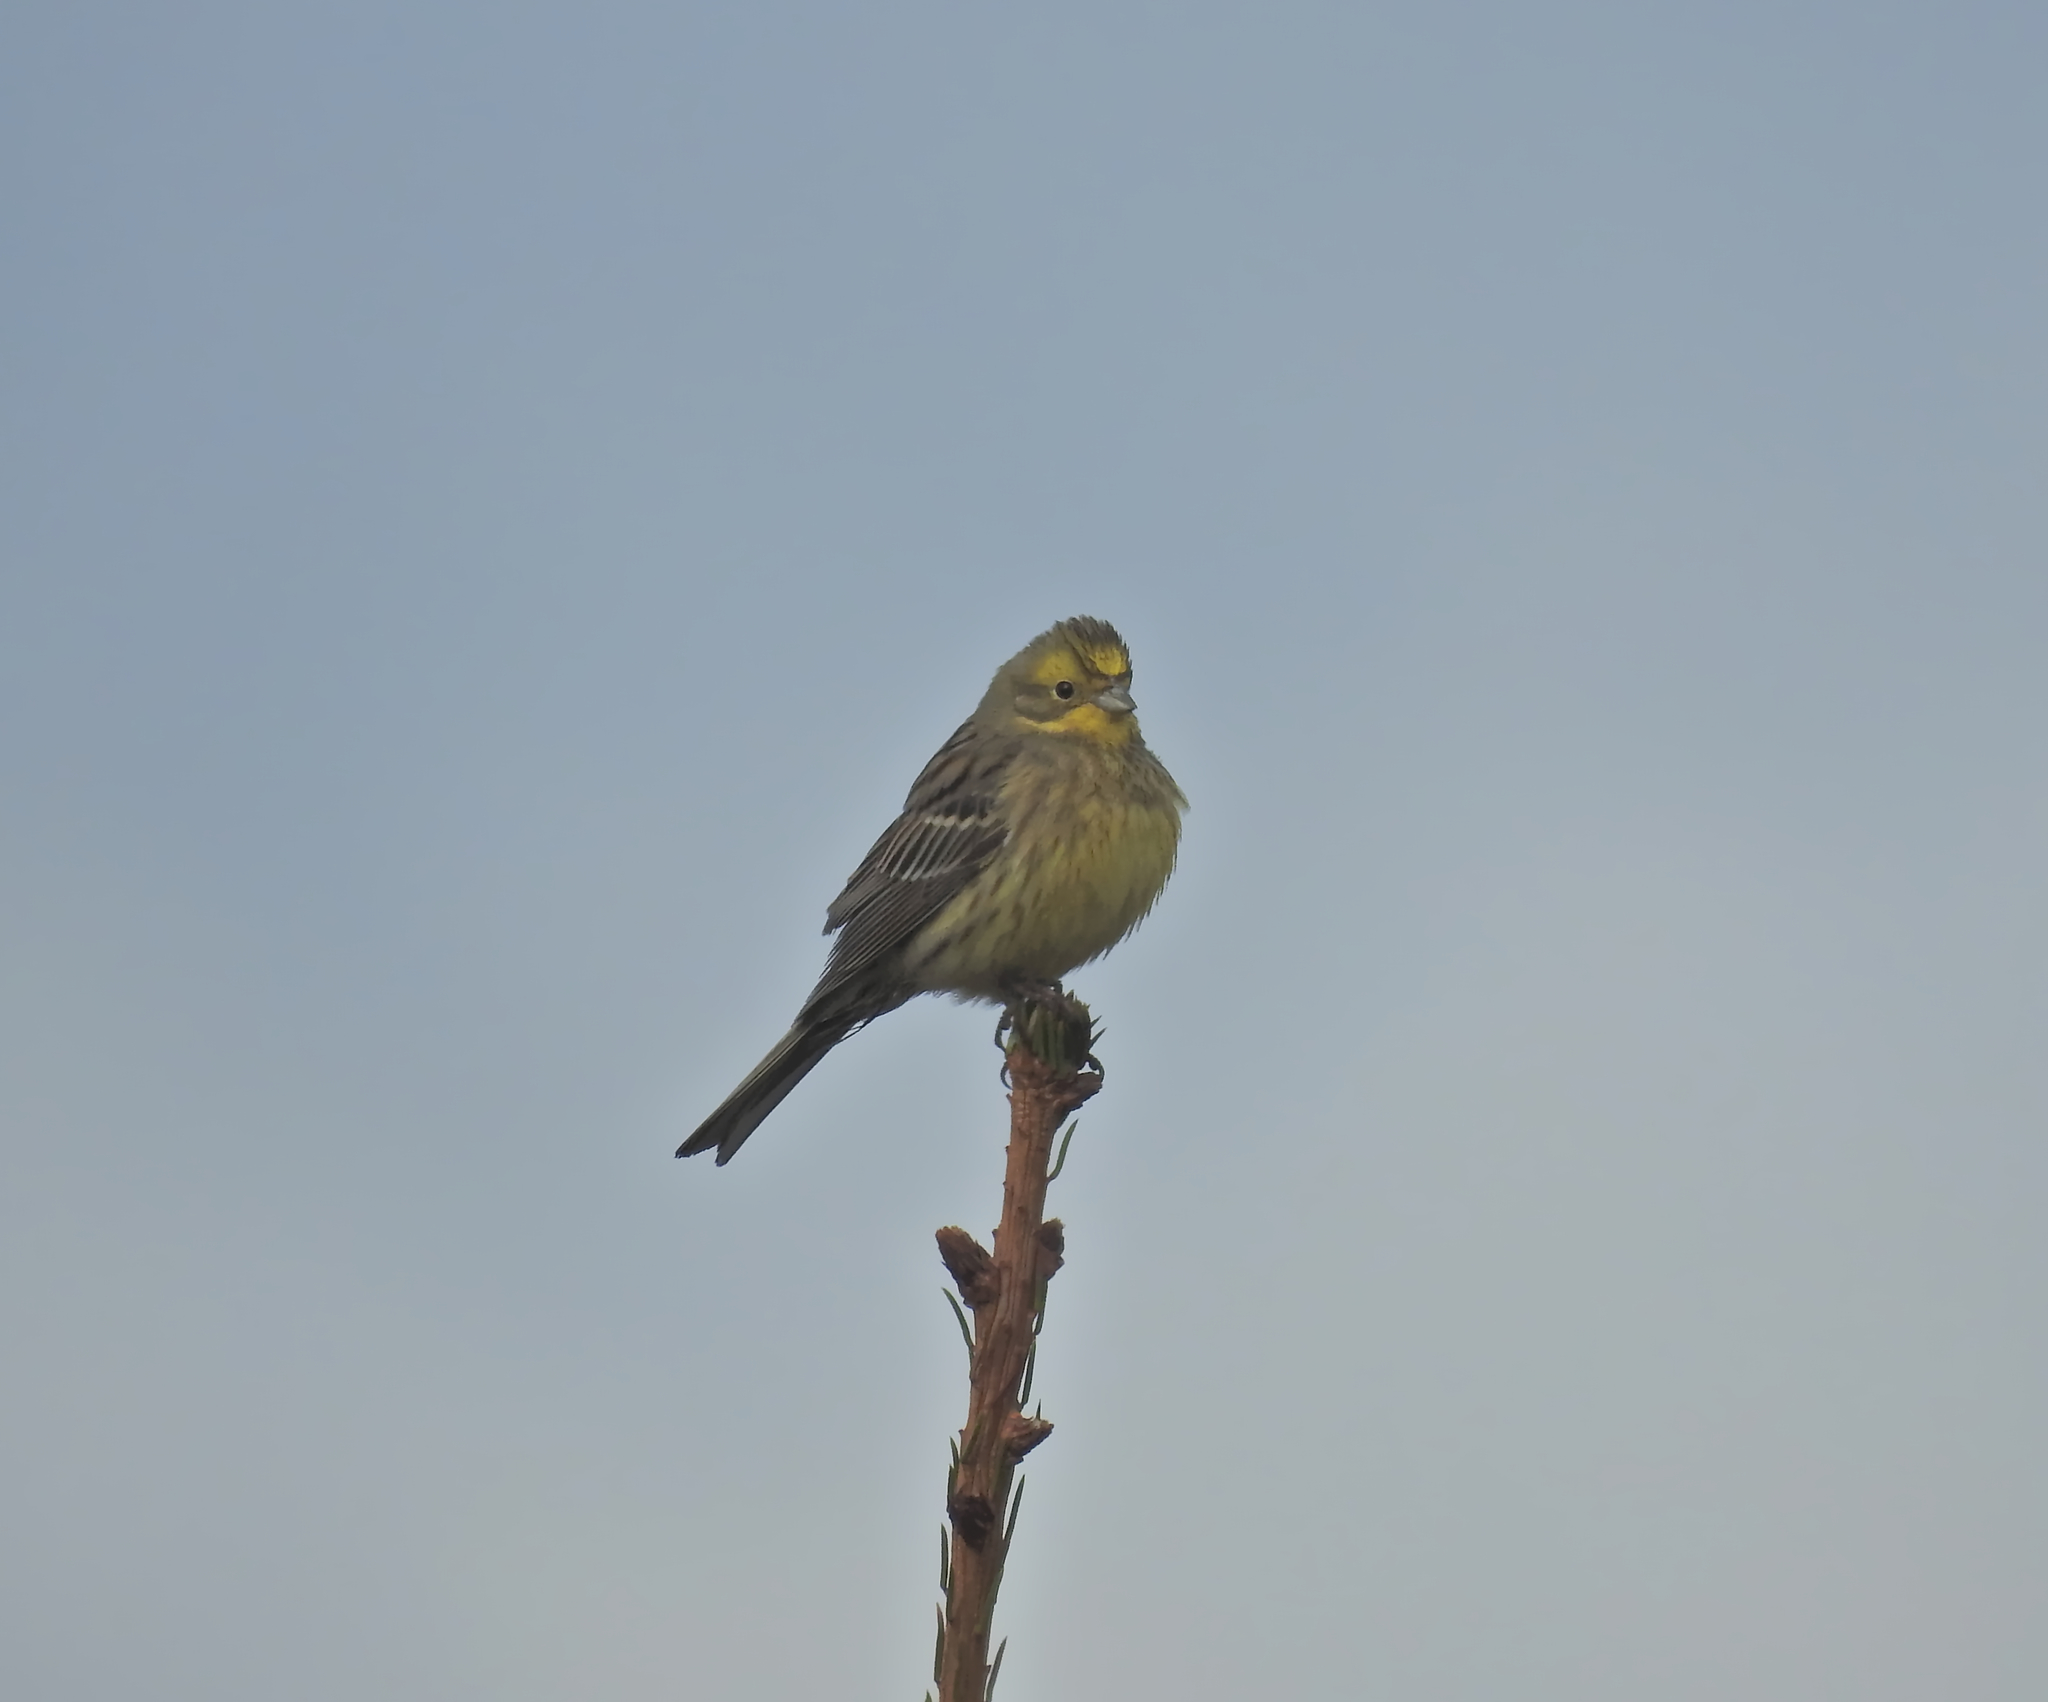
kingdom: Animalia
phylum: Chordata
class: Aves
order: Passeriformes
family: Emberizidae
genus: Emberiza
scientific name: Emberiza citrinella
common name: Yellowhammer
